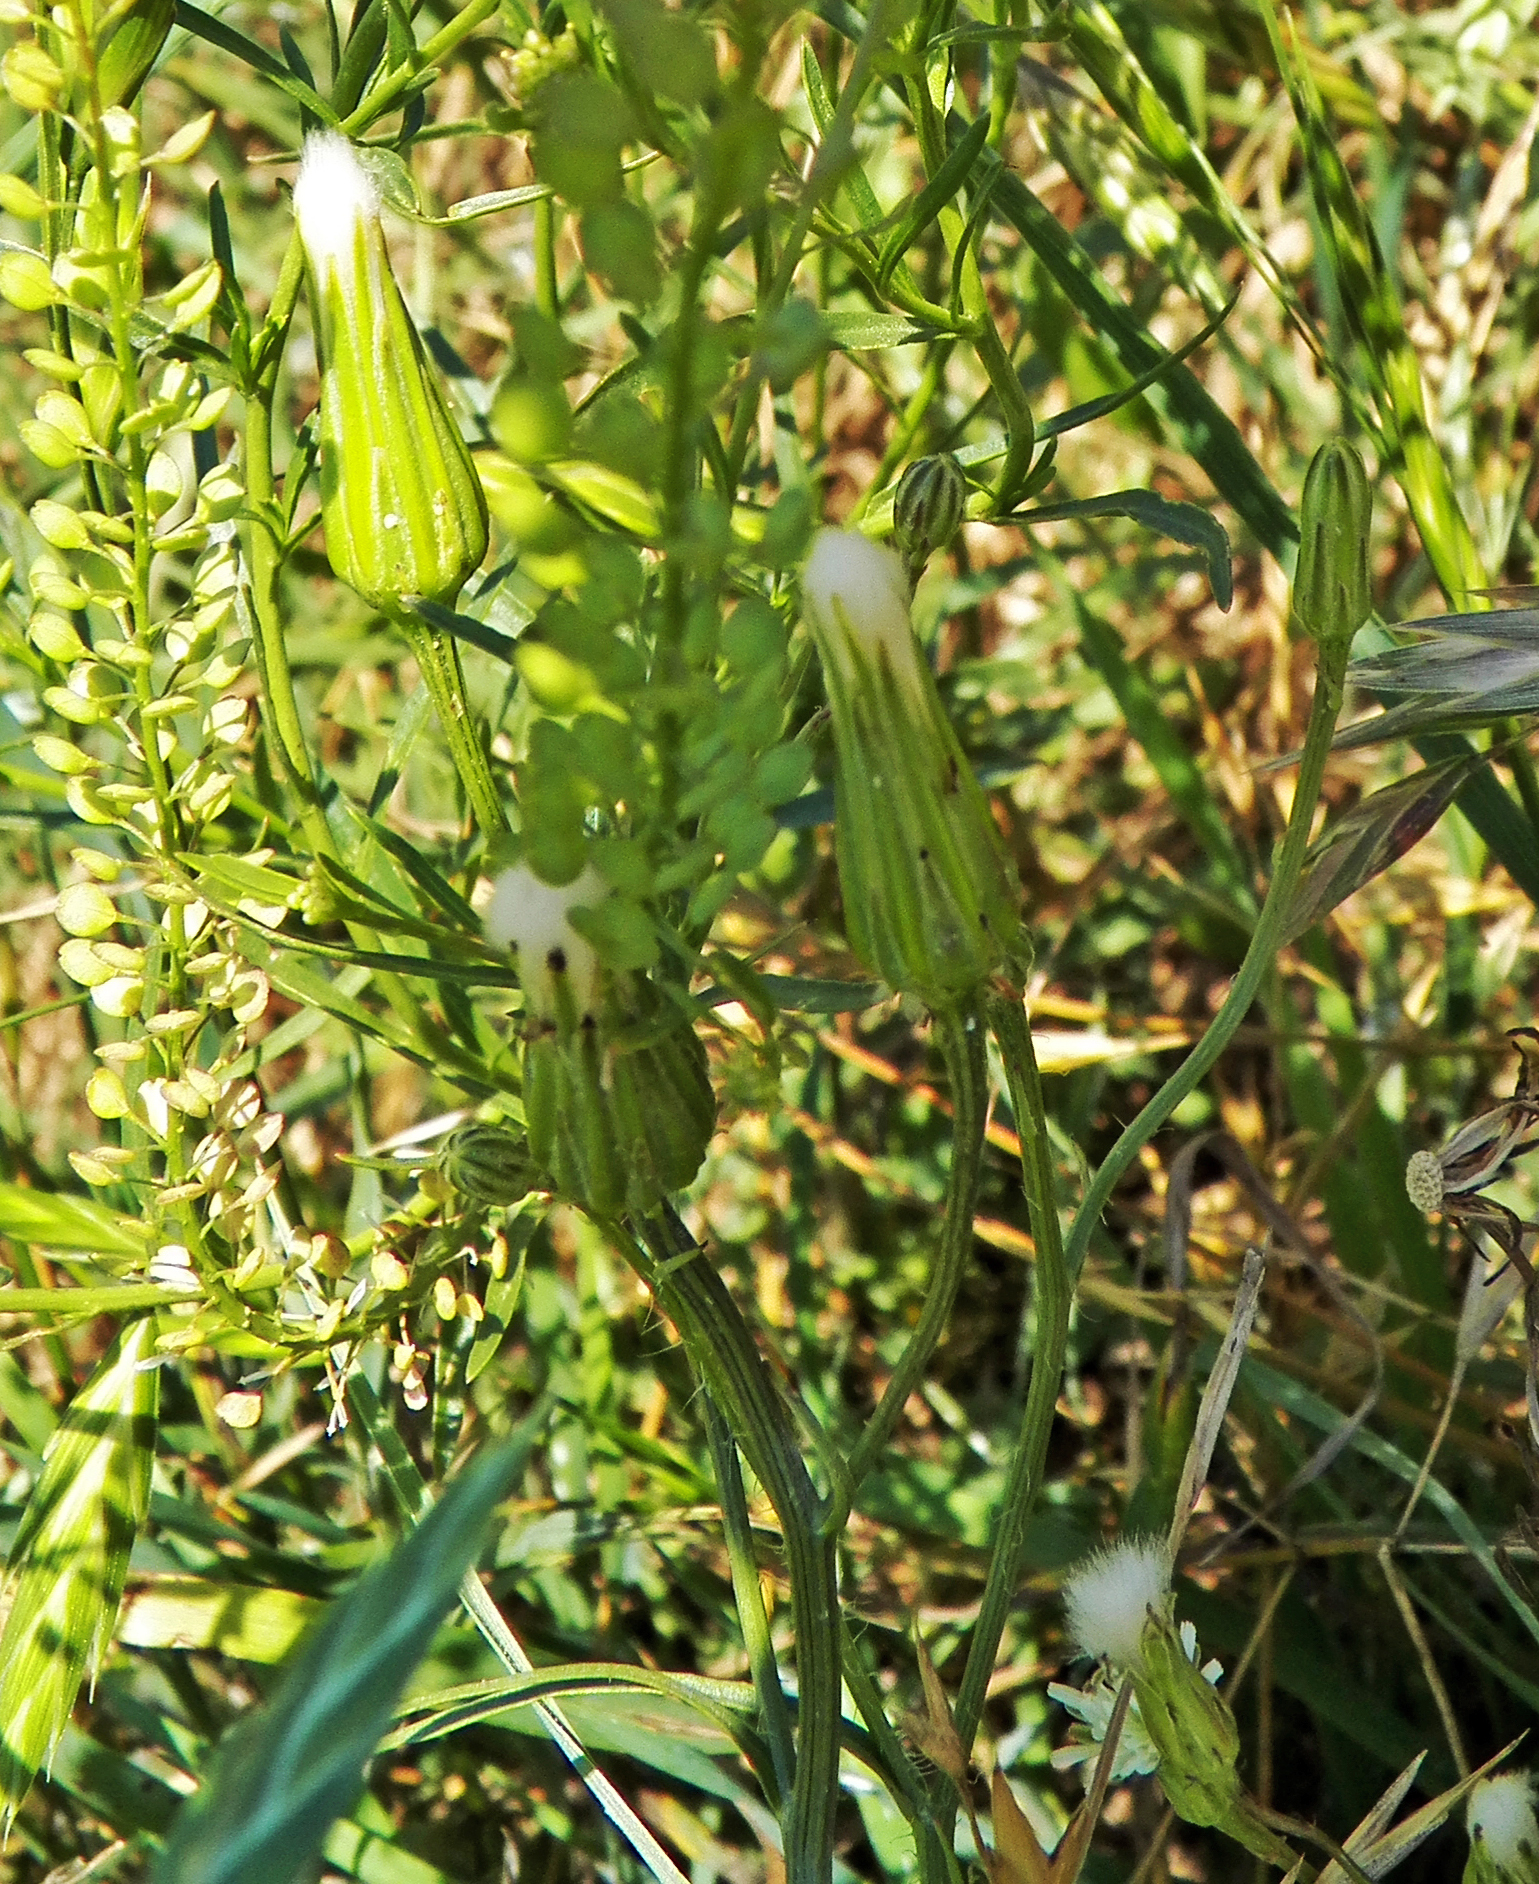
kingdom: Plantae
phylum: Tracheophyta
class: Magnoliopsida
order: Asterales
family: Asteraceae
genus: Hypochaeris
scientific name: Hypochaeris albiflora
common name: White flatweed
